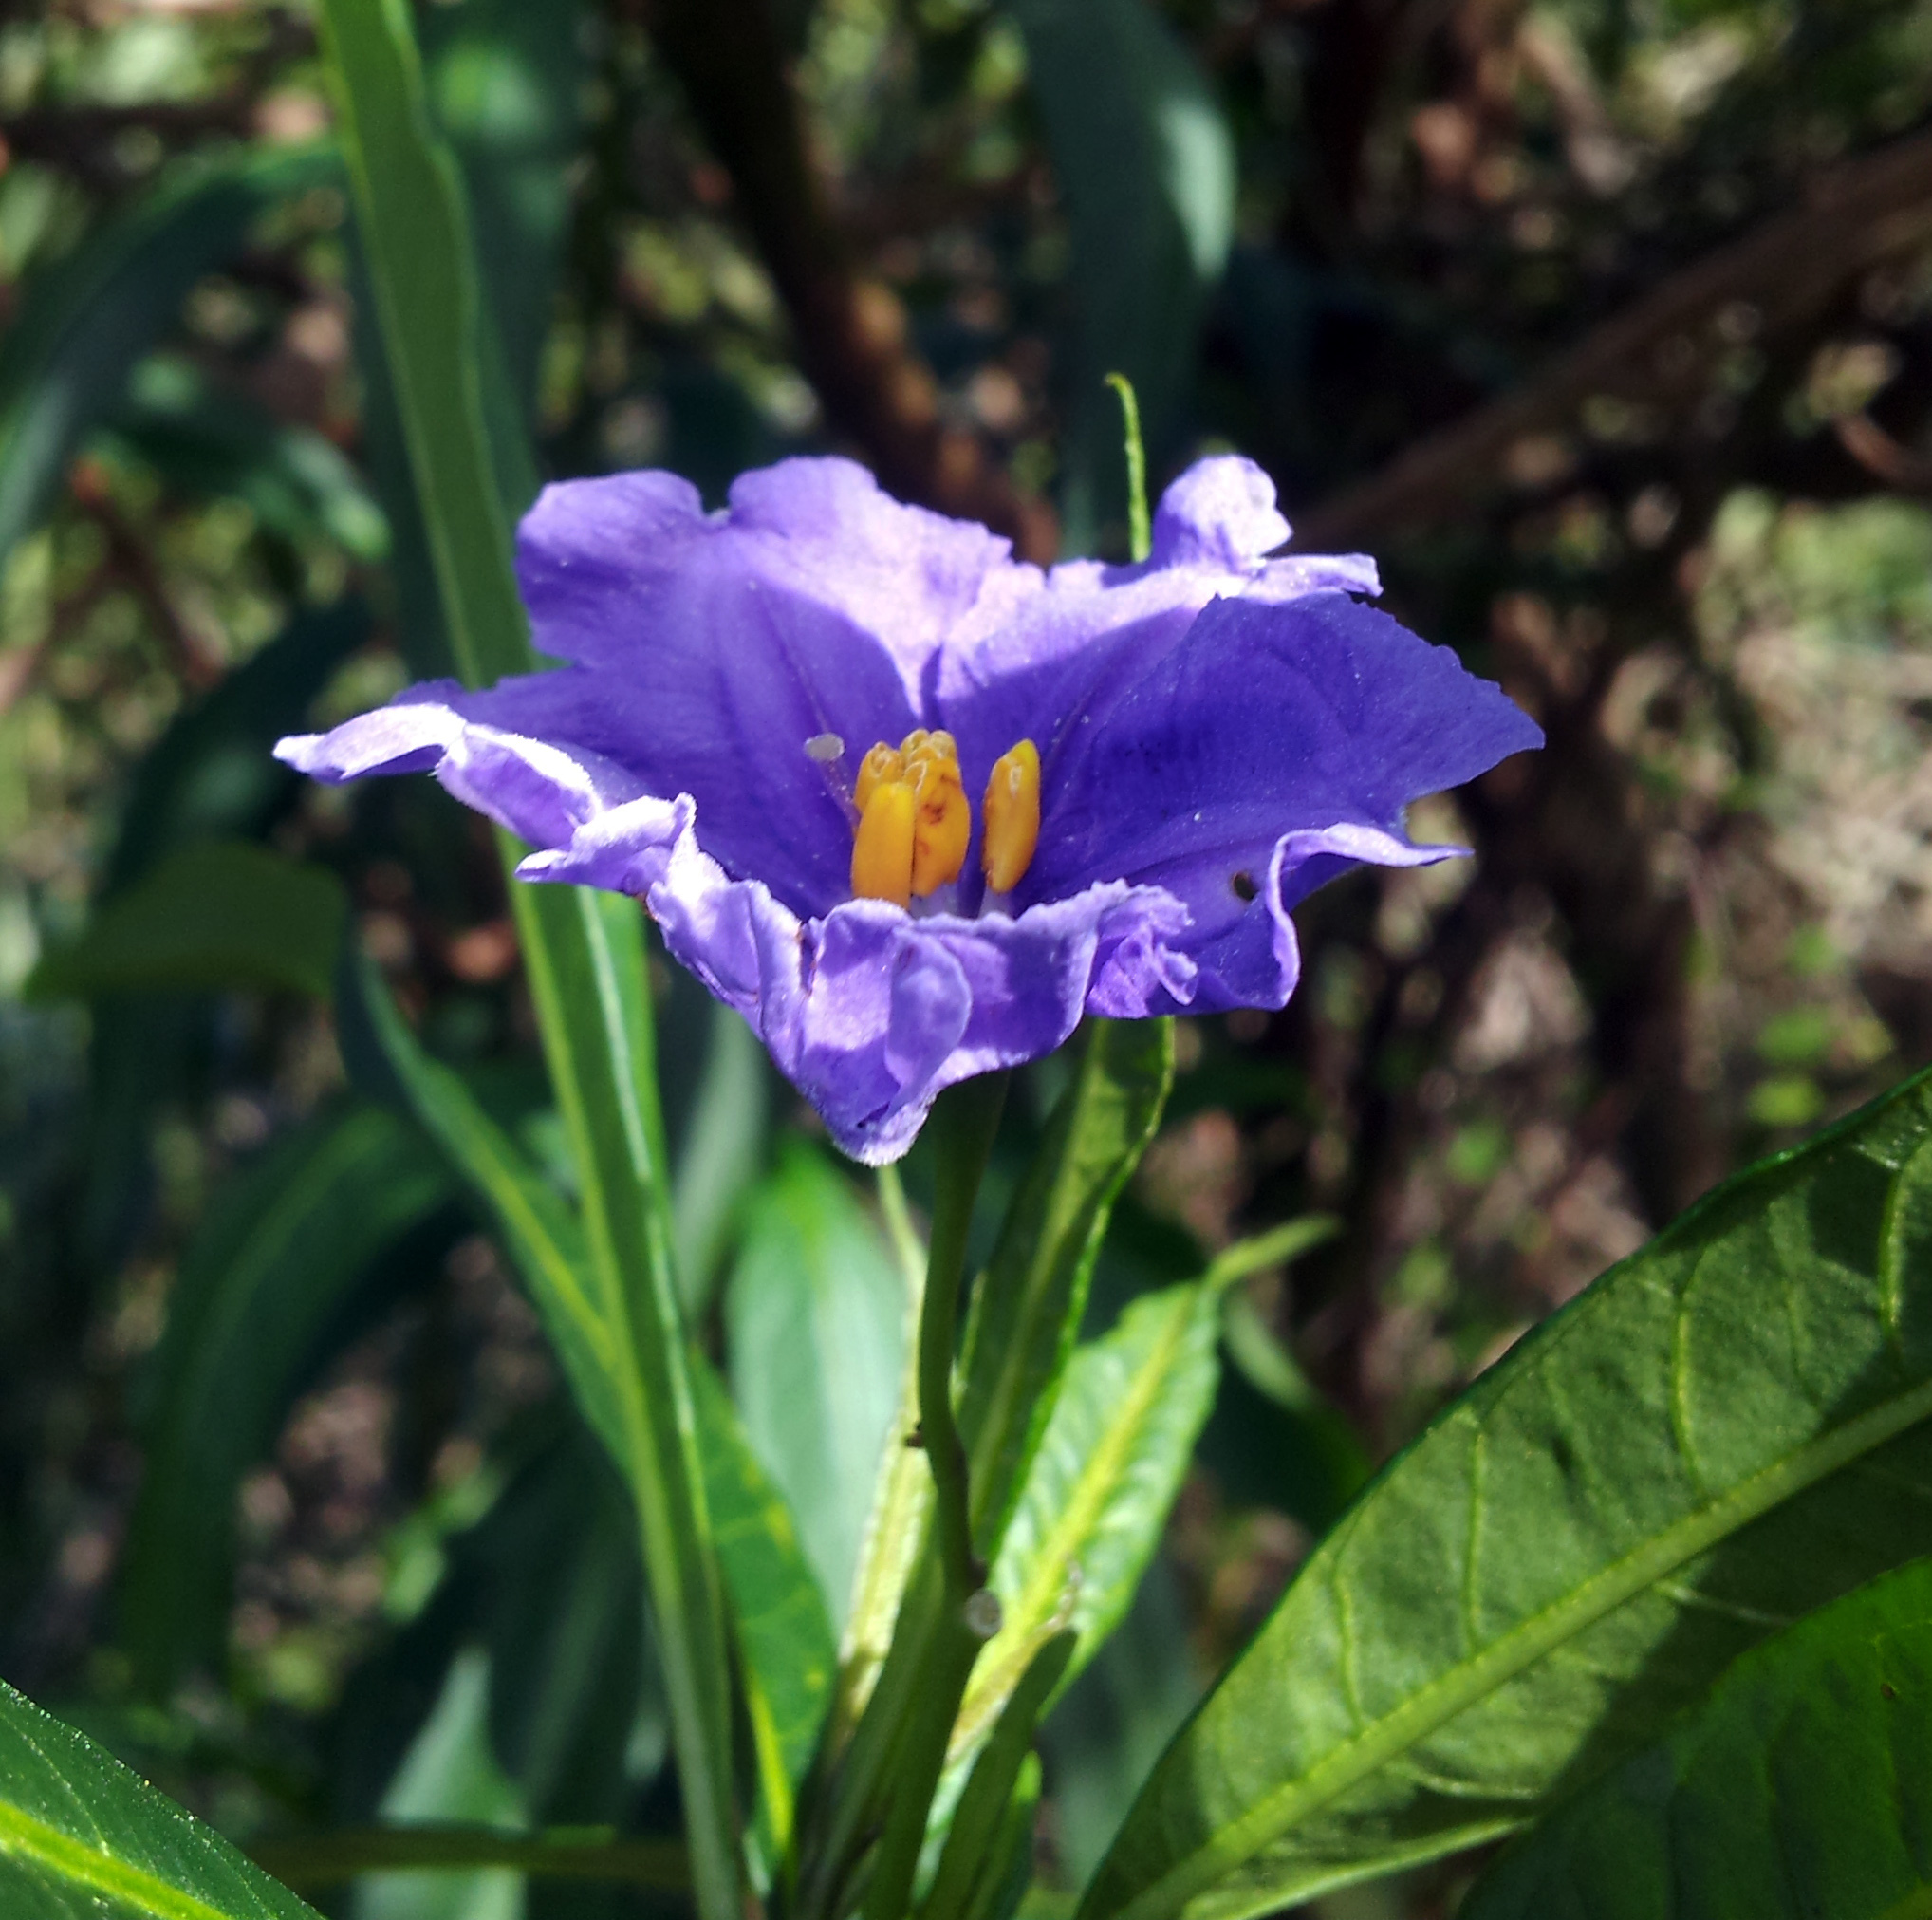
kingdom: Plantae
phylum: Tracheophyta
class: Magnoliopsida
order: Solanales
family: Solanaceae
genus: Solanum
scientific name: Solanum laciniatum
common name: Kangaroo-apple
